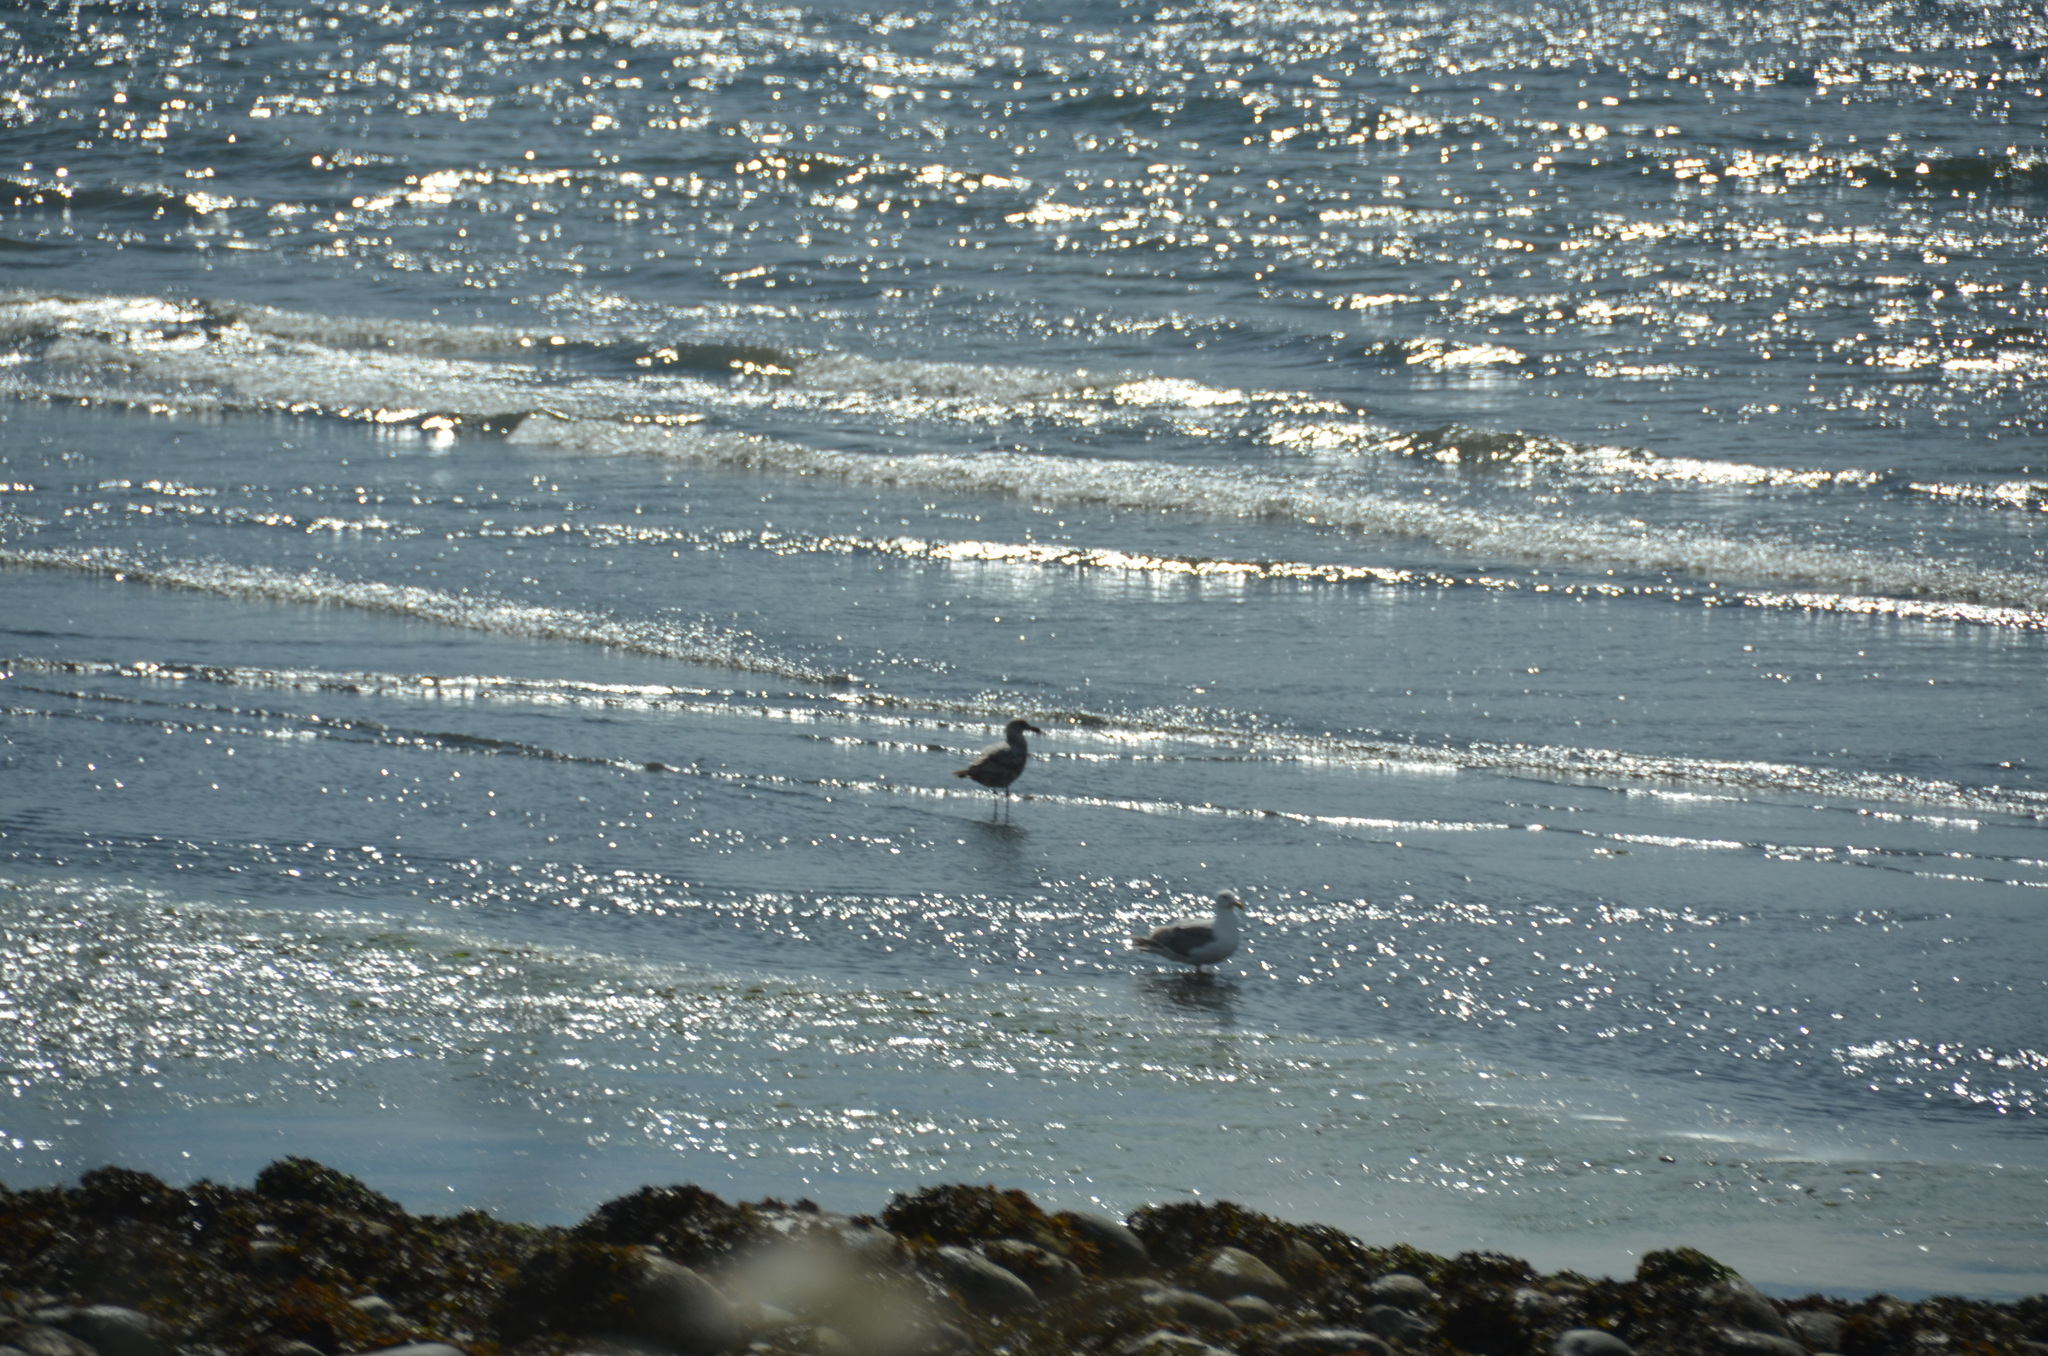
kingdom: Animalia
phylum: Chordata
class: Aves
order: Charadriiformes
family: Laridae
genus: Larus
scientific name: Larus glaucescens
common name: Glaucous-winged gull
